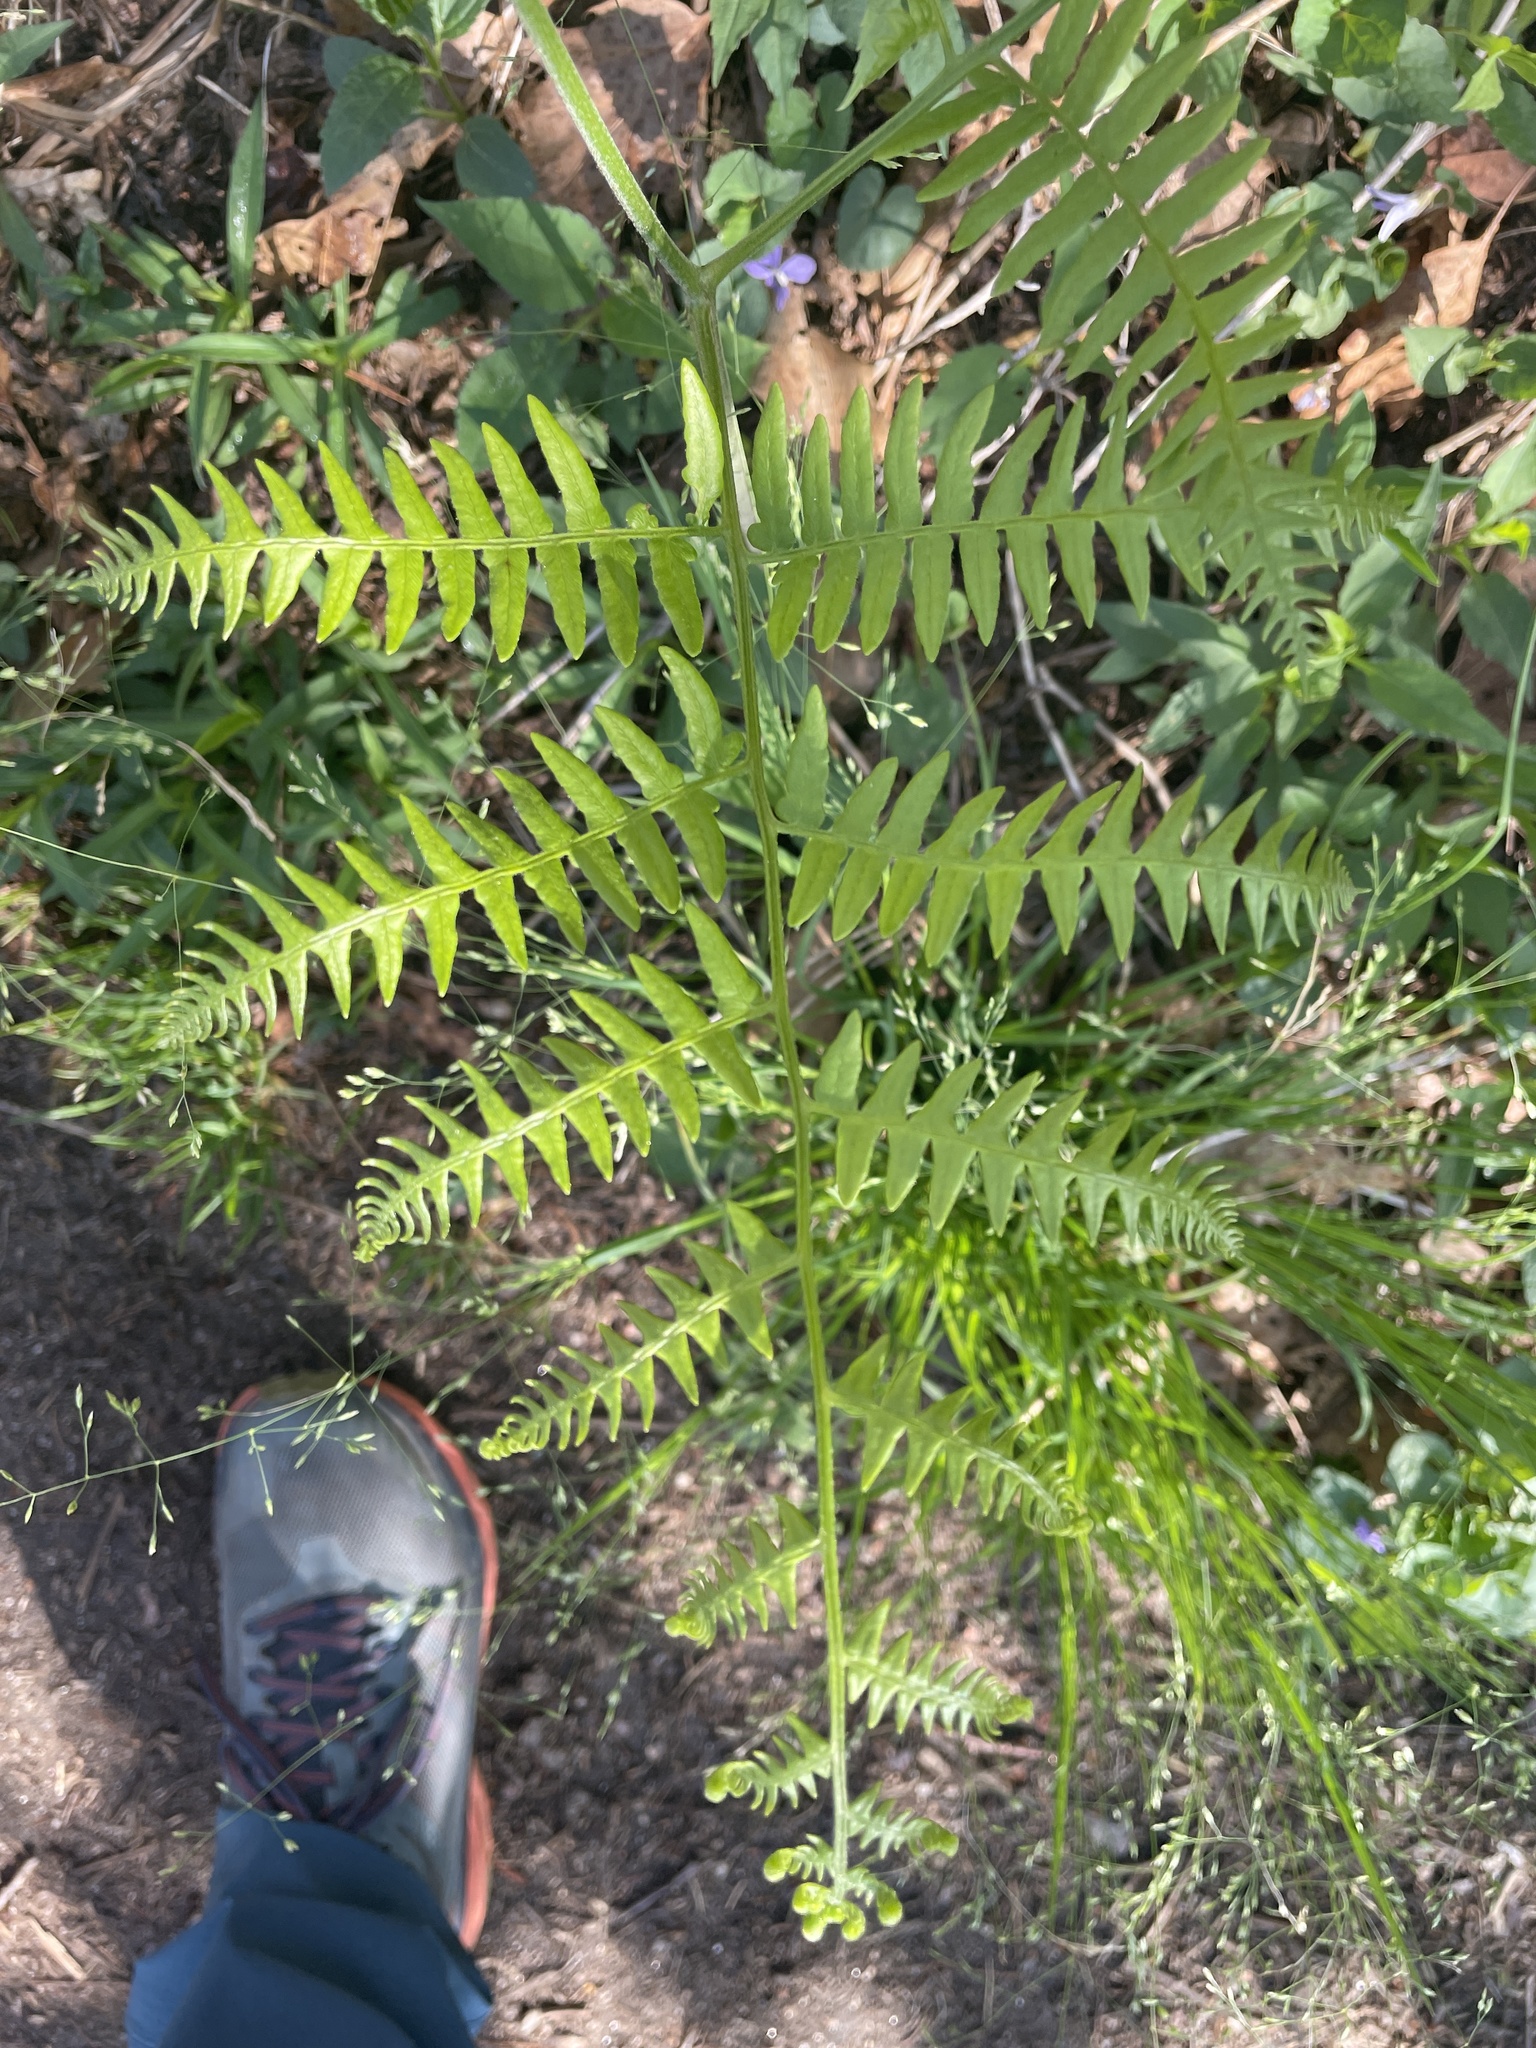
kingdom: Plantae
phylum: Tracheophyta
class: Polypodiopsida
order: Polypodiales
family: Dennstaedtiaceae
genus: Pteridium
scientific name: Pteridium aquilinum
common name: Bracken
